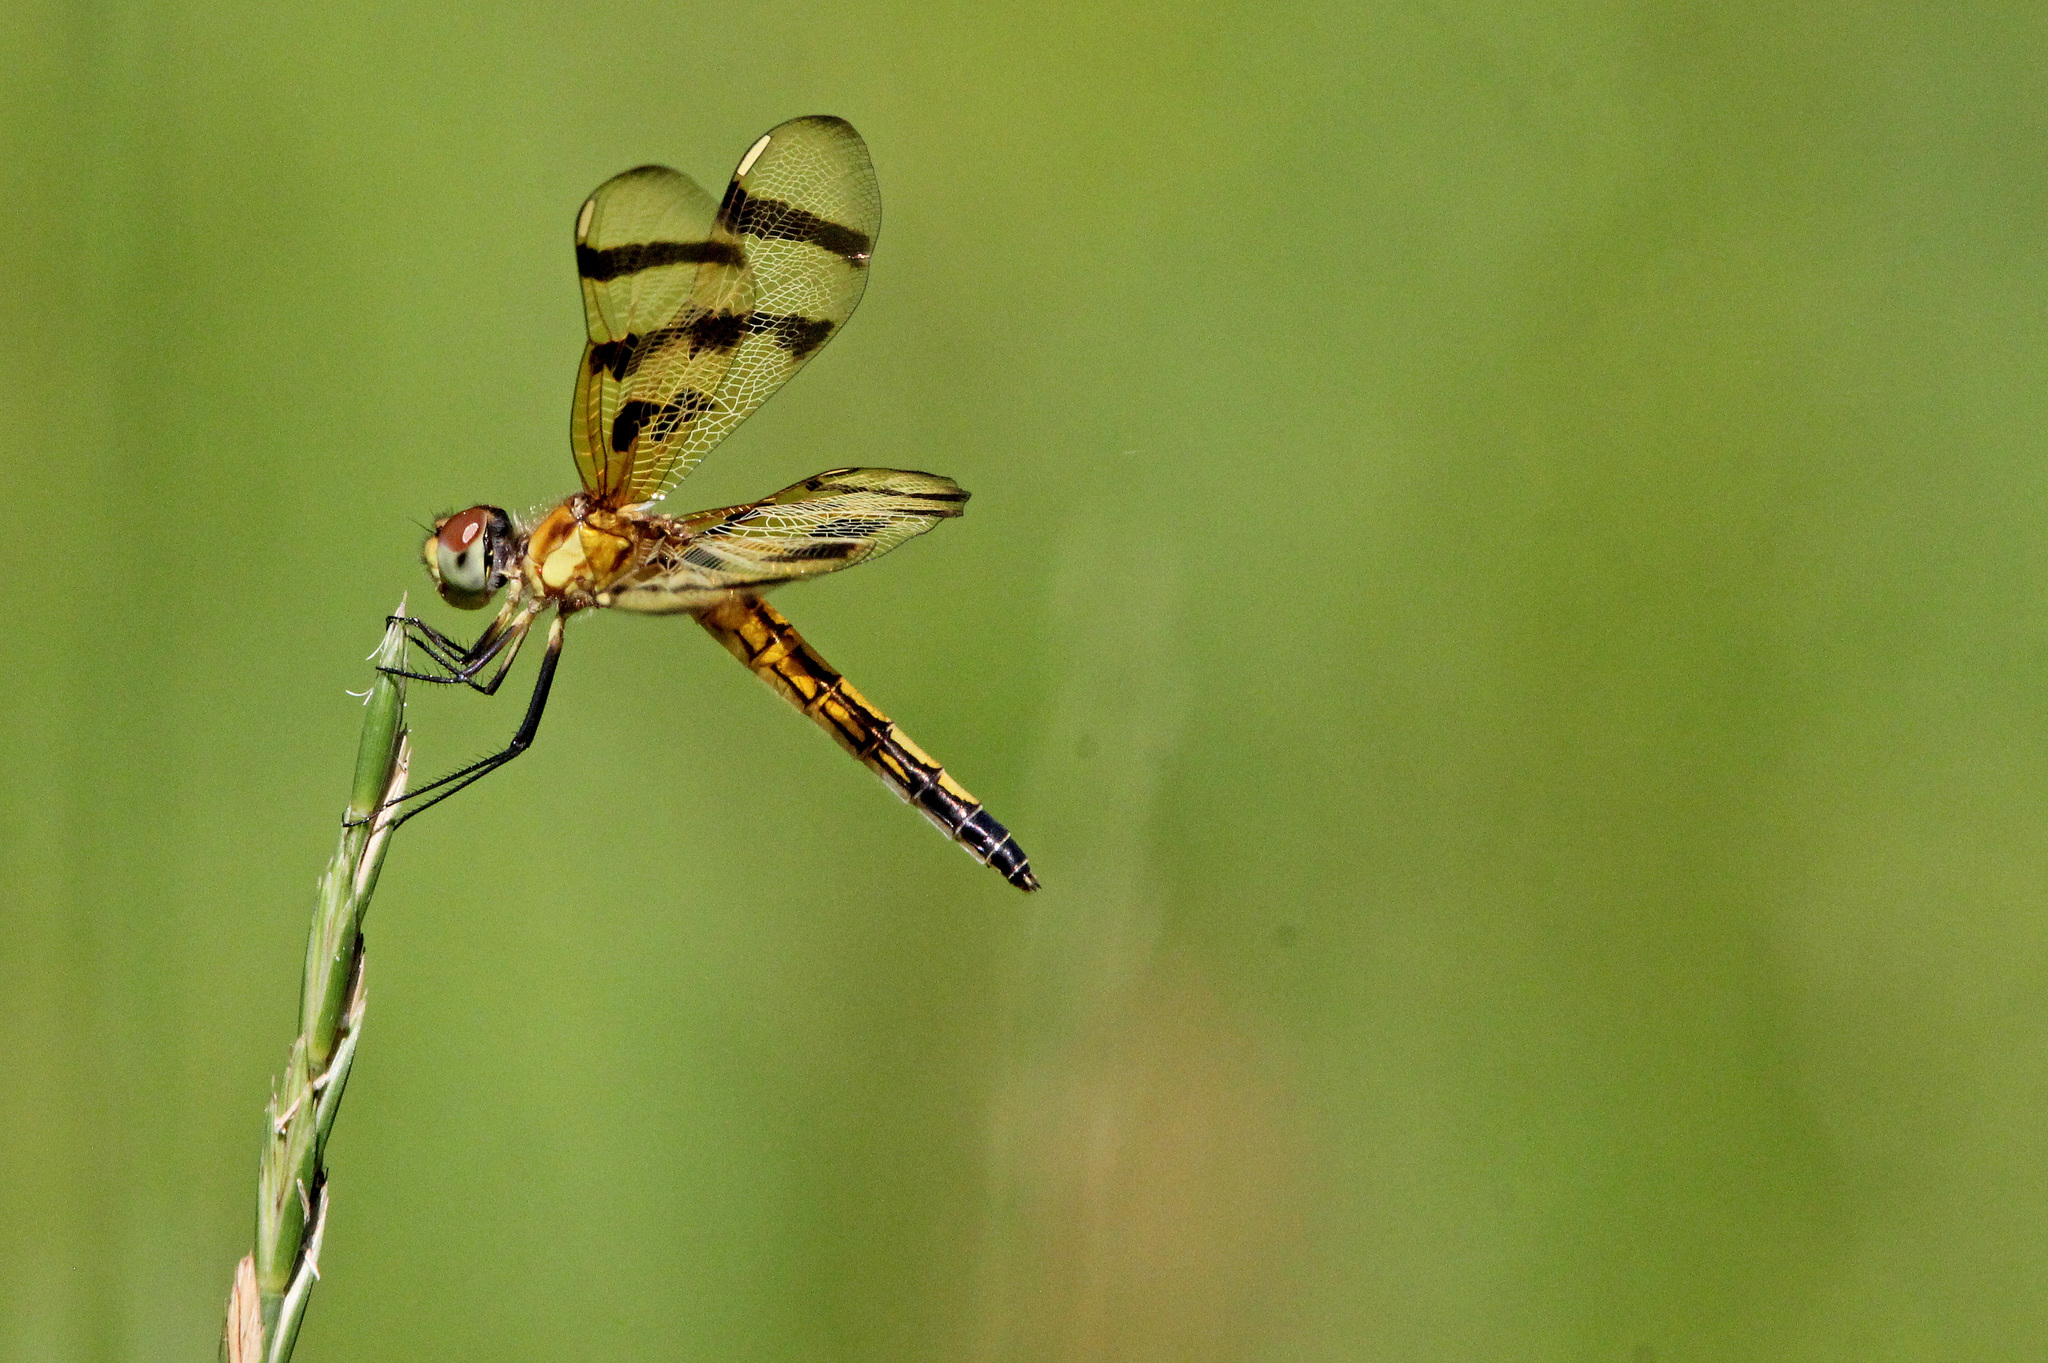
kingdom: Animalia
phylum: Arthropoda
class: Insecta
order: Odonata
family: Libellulidae
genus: Celithemis
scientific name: Celithemis eponina
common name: Halloween pennant
